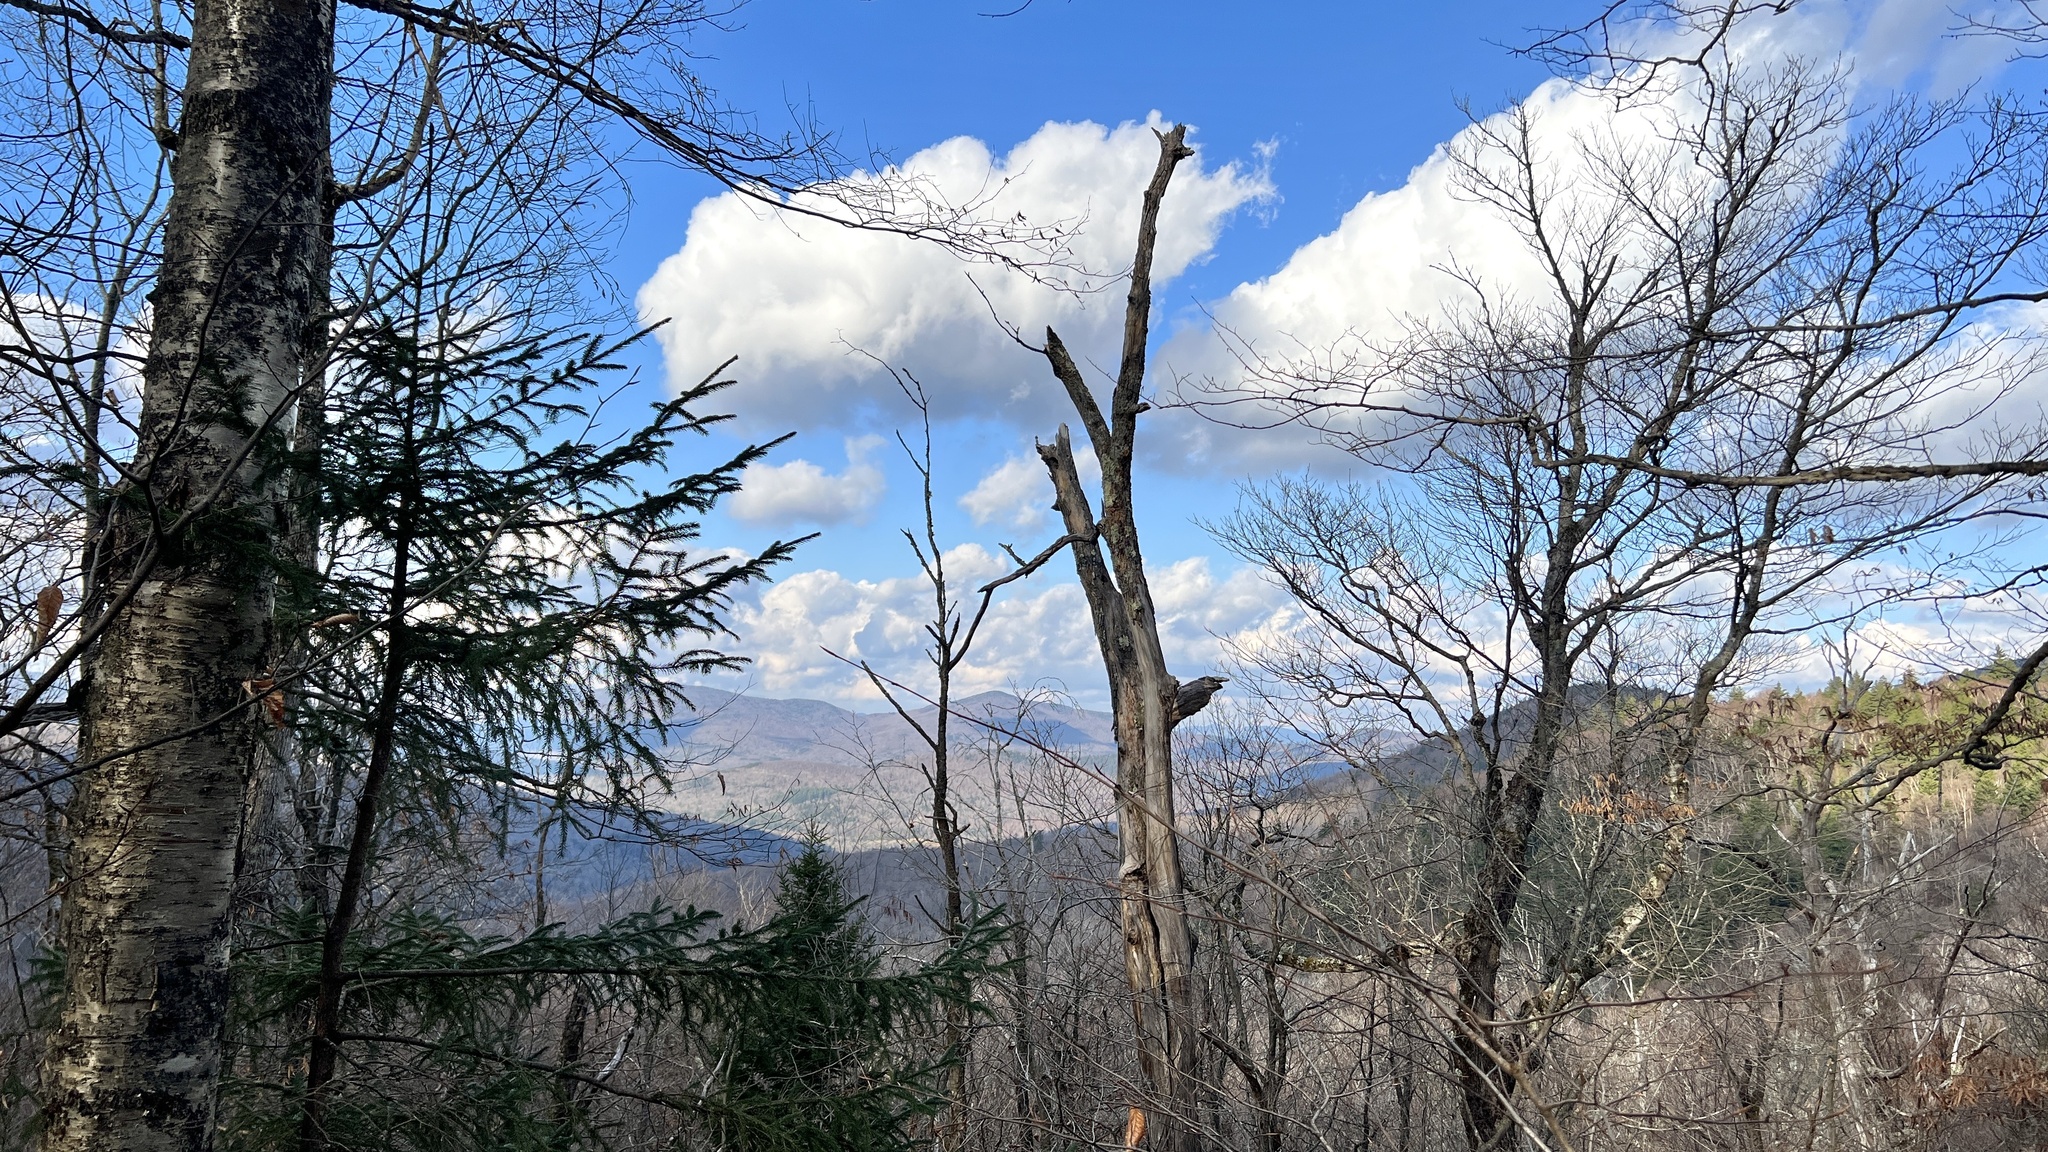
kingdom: Plantae
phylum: Tracheophyta
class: Magnoliopsida
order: Fagales
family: Betulaceae
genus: Betula
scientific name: Betula alleghaniensis
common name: Yellow birch
